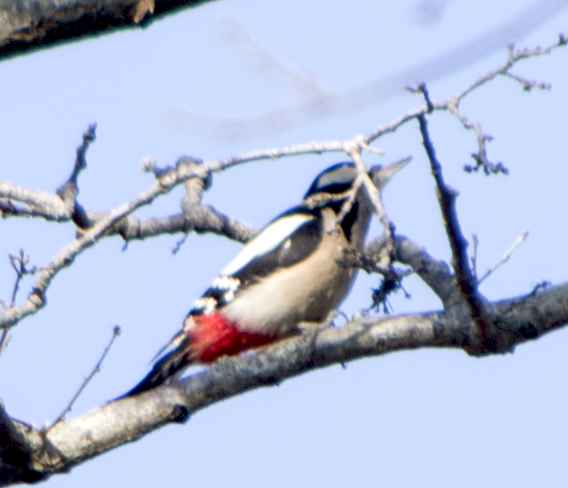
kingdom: Animalia
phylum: Chordata
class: Aves
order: Piciformes
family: Picidae
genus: Dendrocopos
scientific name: Dendrocopos major
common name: Great spotted woodpecker
